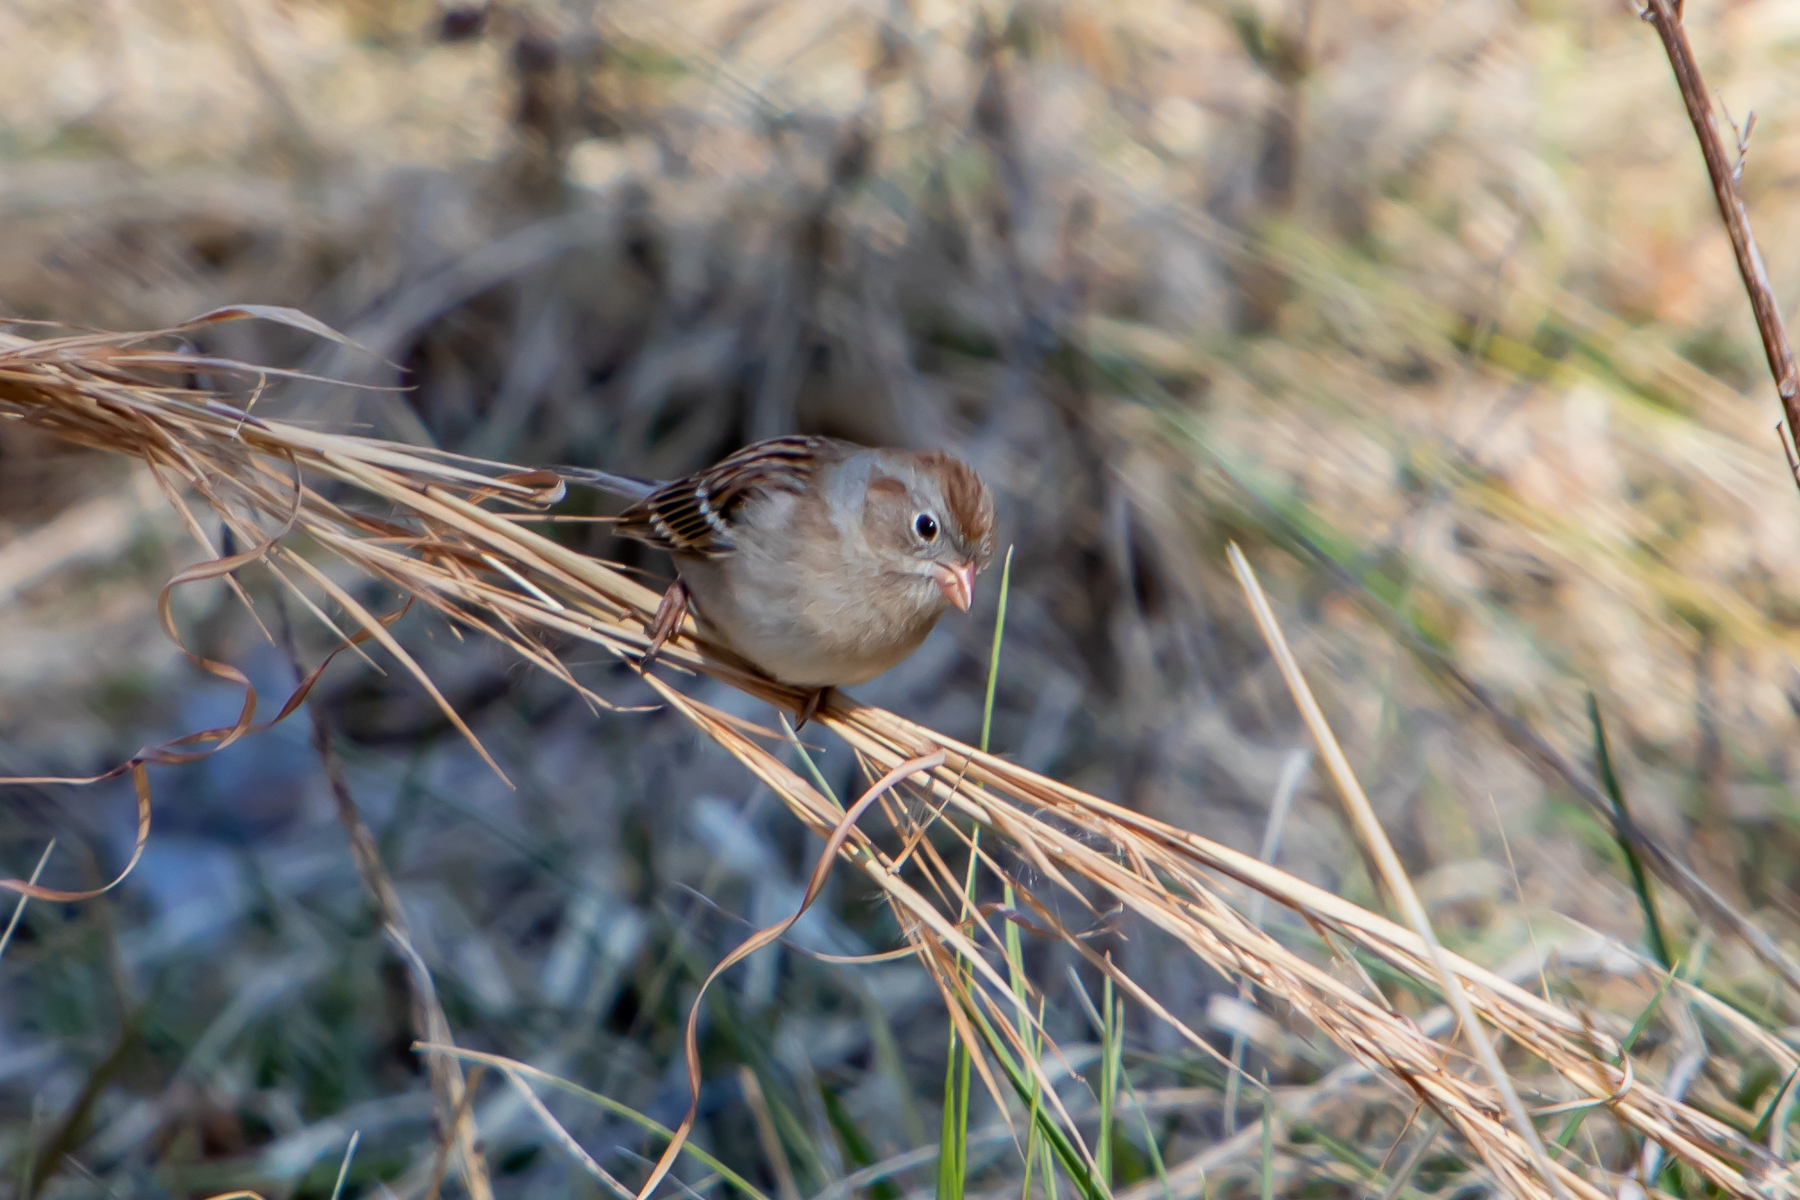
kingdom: Animalia
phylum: Chordata
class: Aves
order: Passeriformes
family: Passerellidae
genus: Spizella
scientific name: Spizella pusilla
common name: Field sparrow
